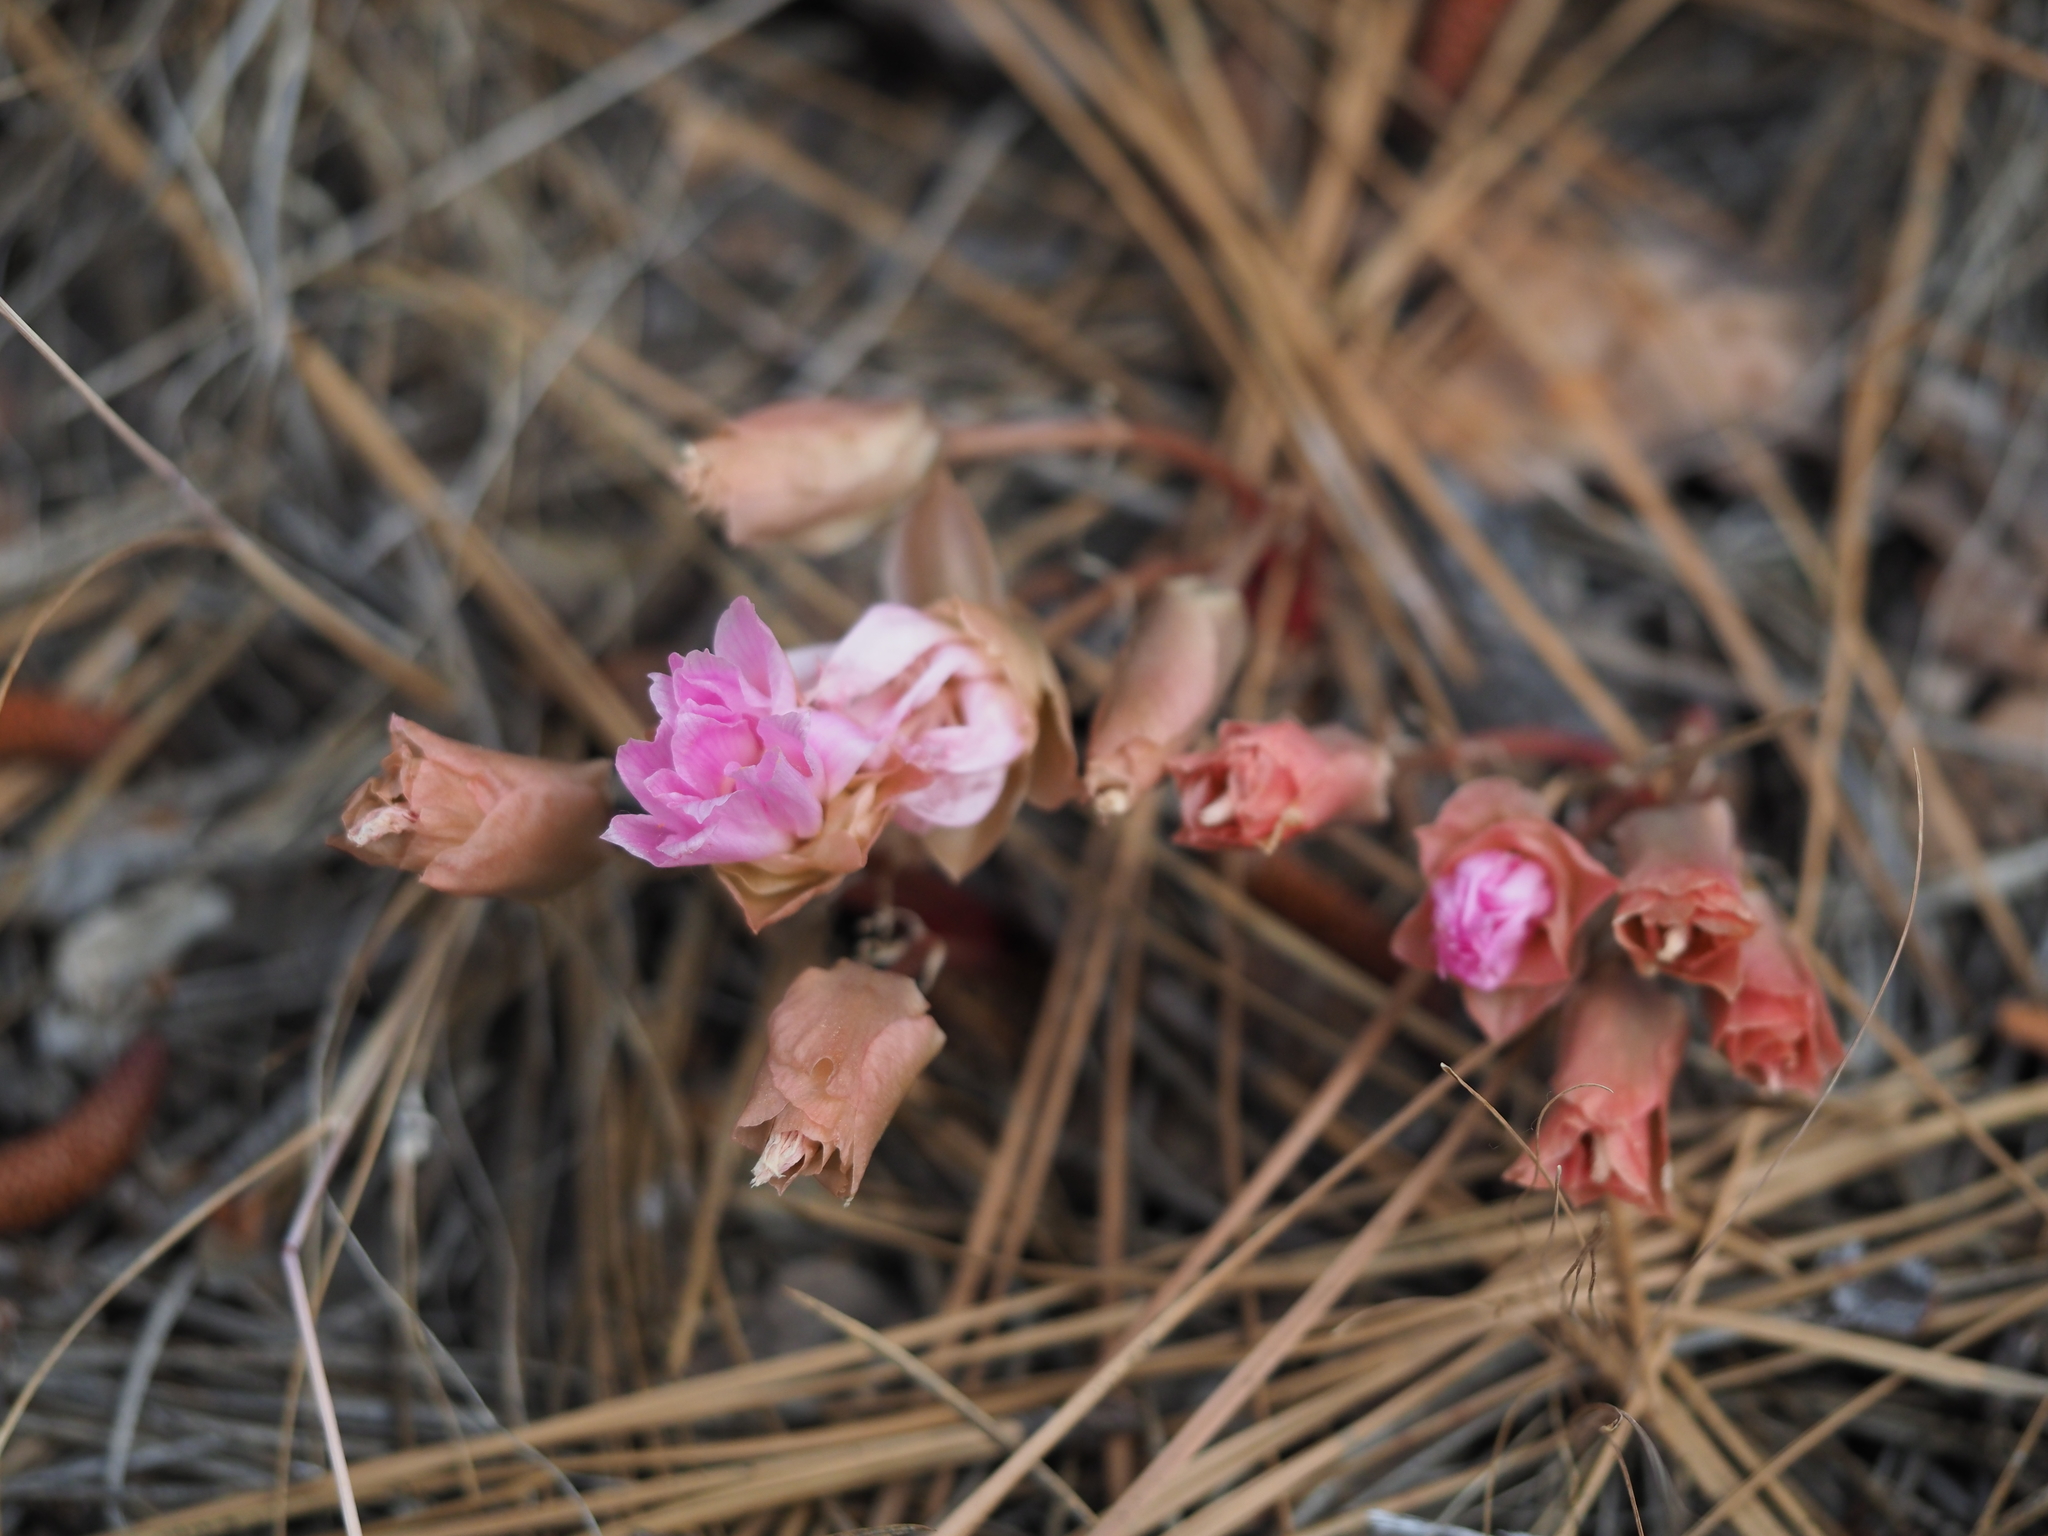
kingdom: Plantae
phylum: Tracheophyta
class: Magnoliopsida
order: Caryophyllales
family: Montiaceae
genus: Lewisia
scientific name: Lewisia rediviva
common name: Bitter-root
